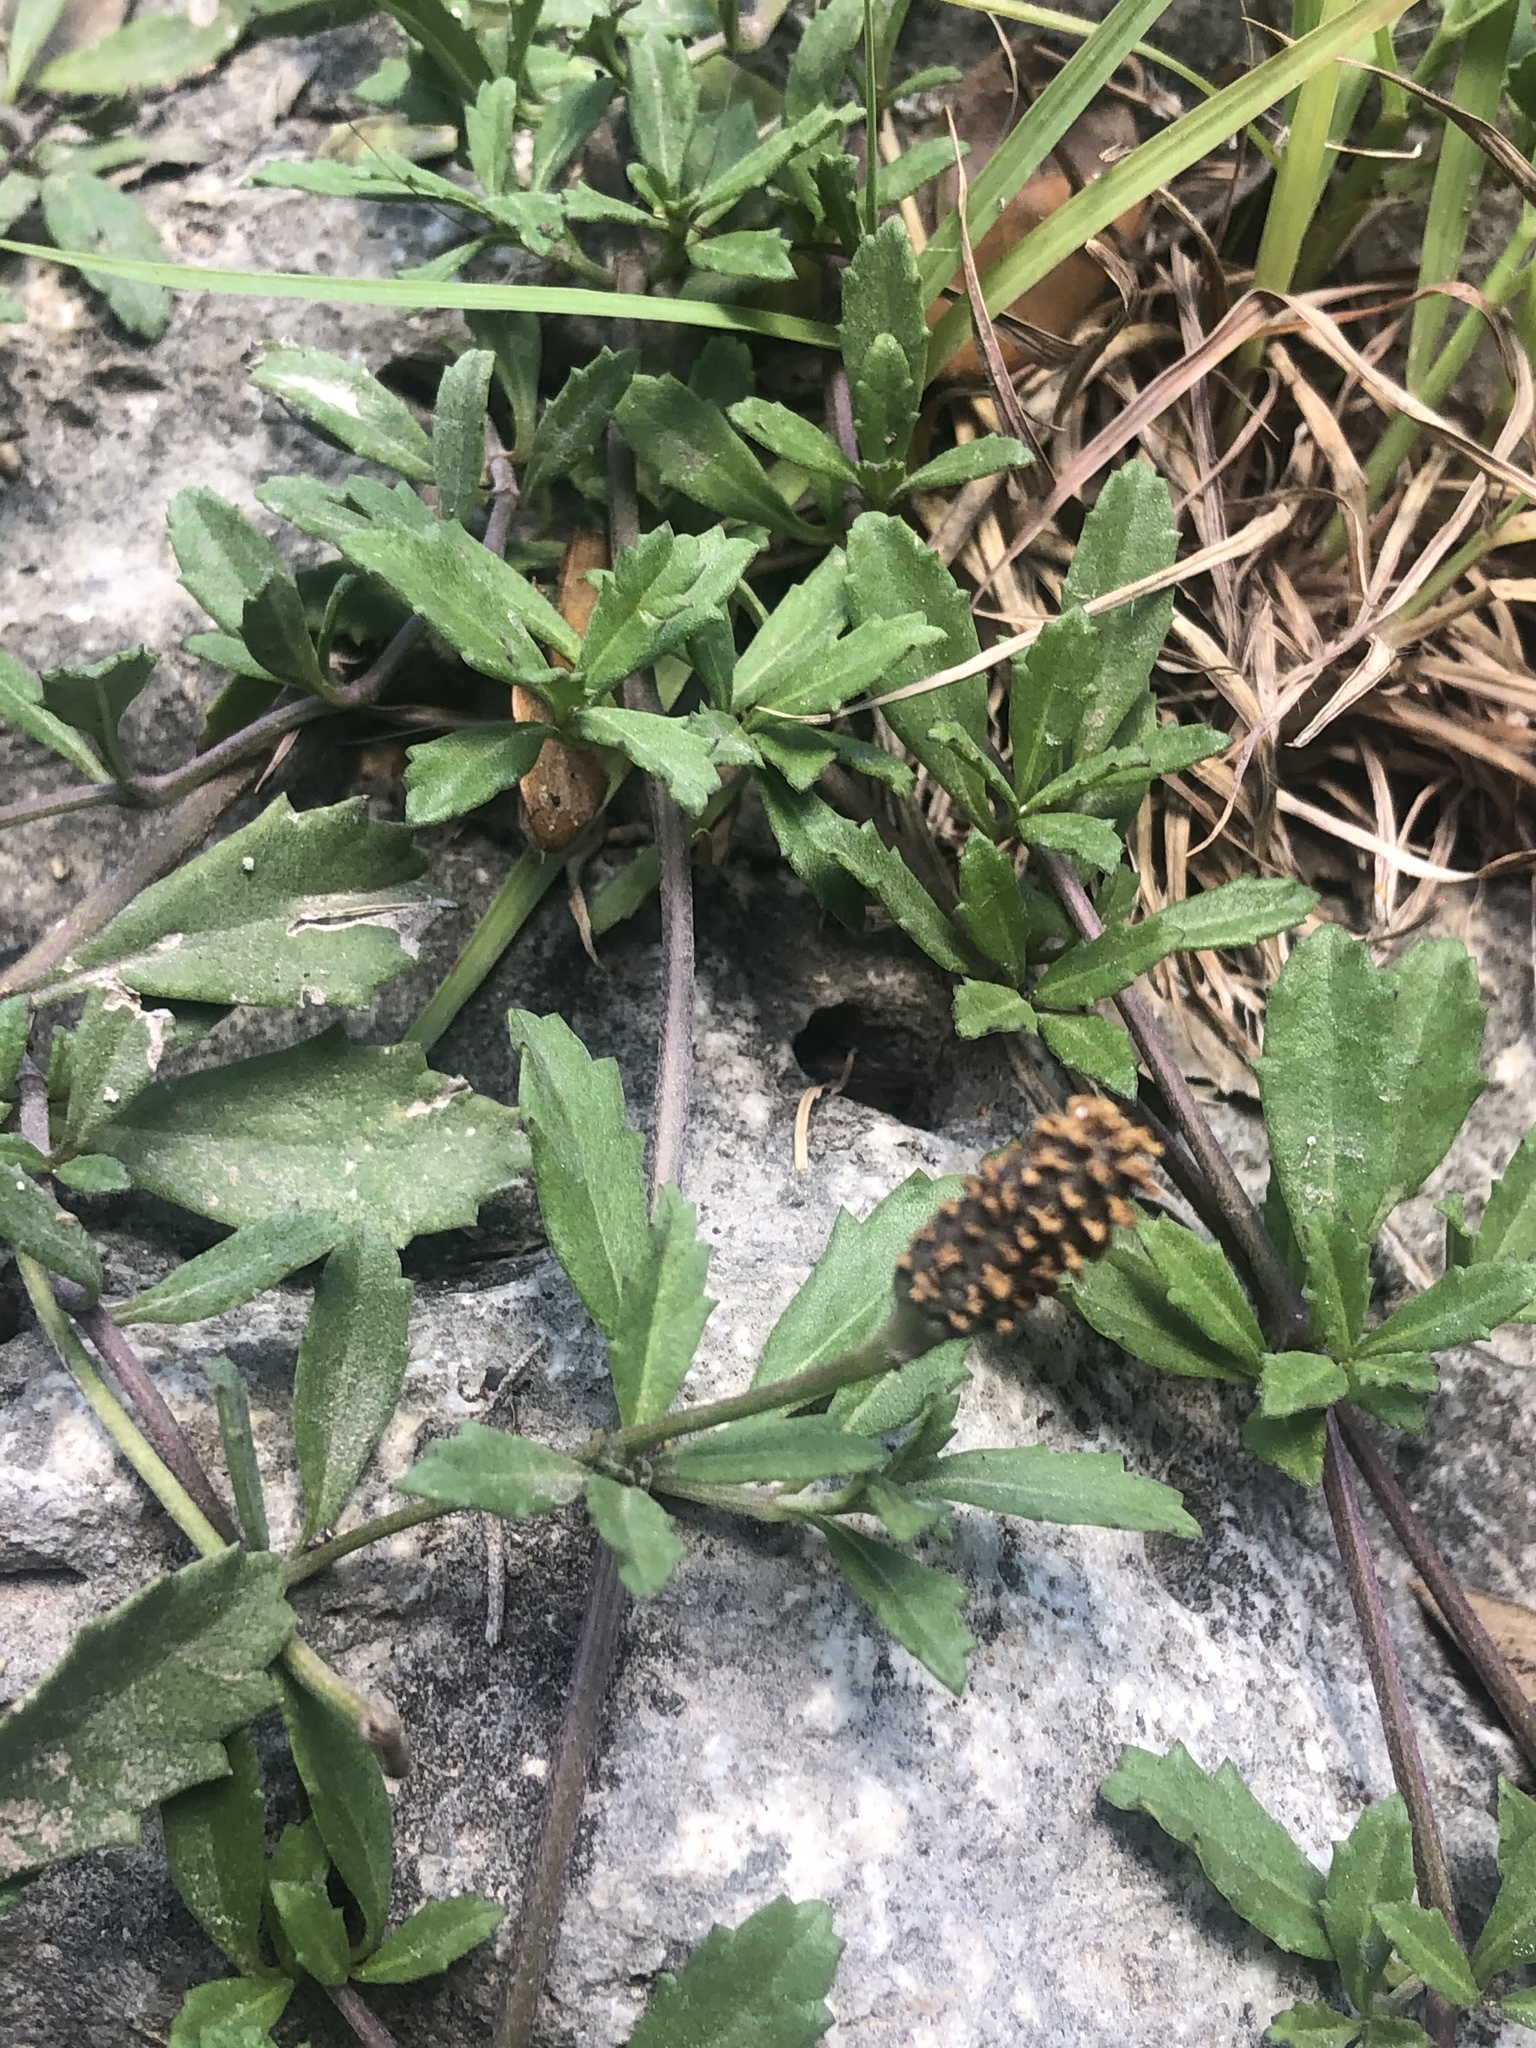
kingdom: Plantae
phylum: Tracheophyta
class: Magnoliopsida
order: Lamiales
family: Verbenaceae
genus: Phyla
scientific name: Phyla nodiflora
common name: Frogfruit
